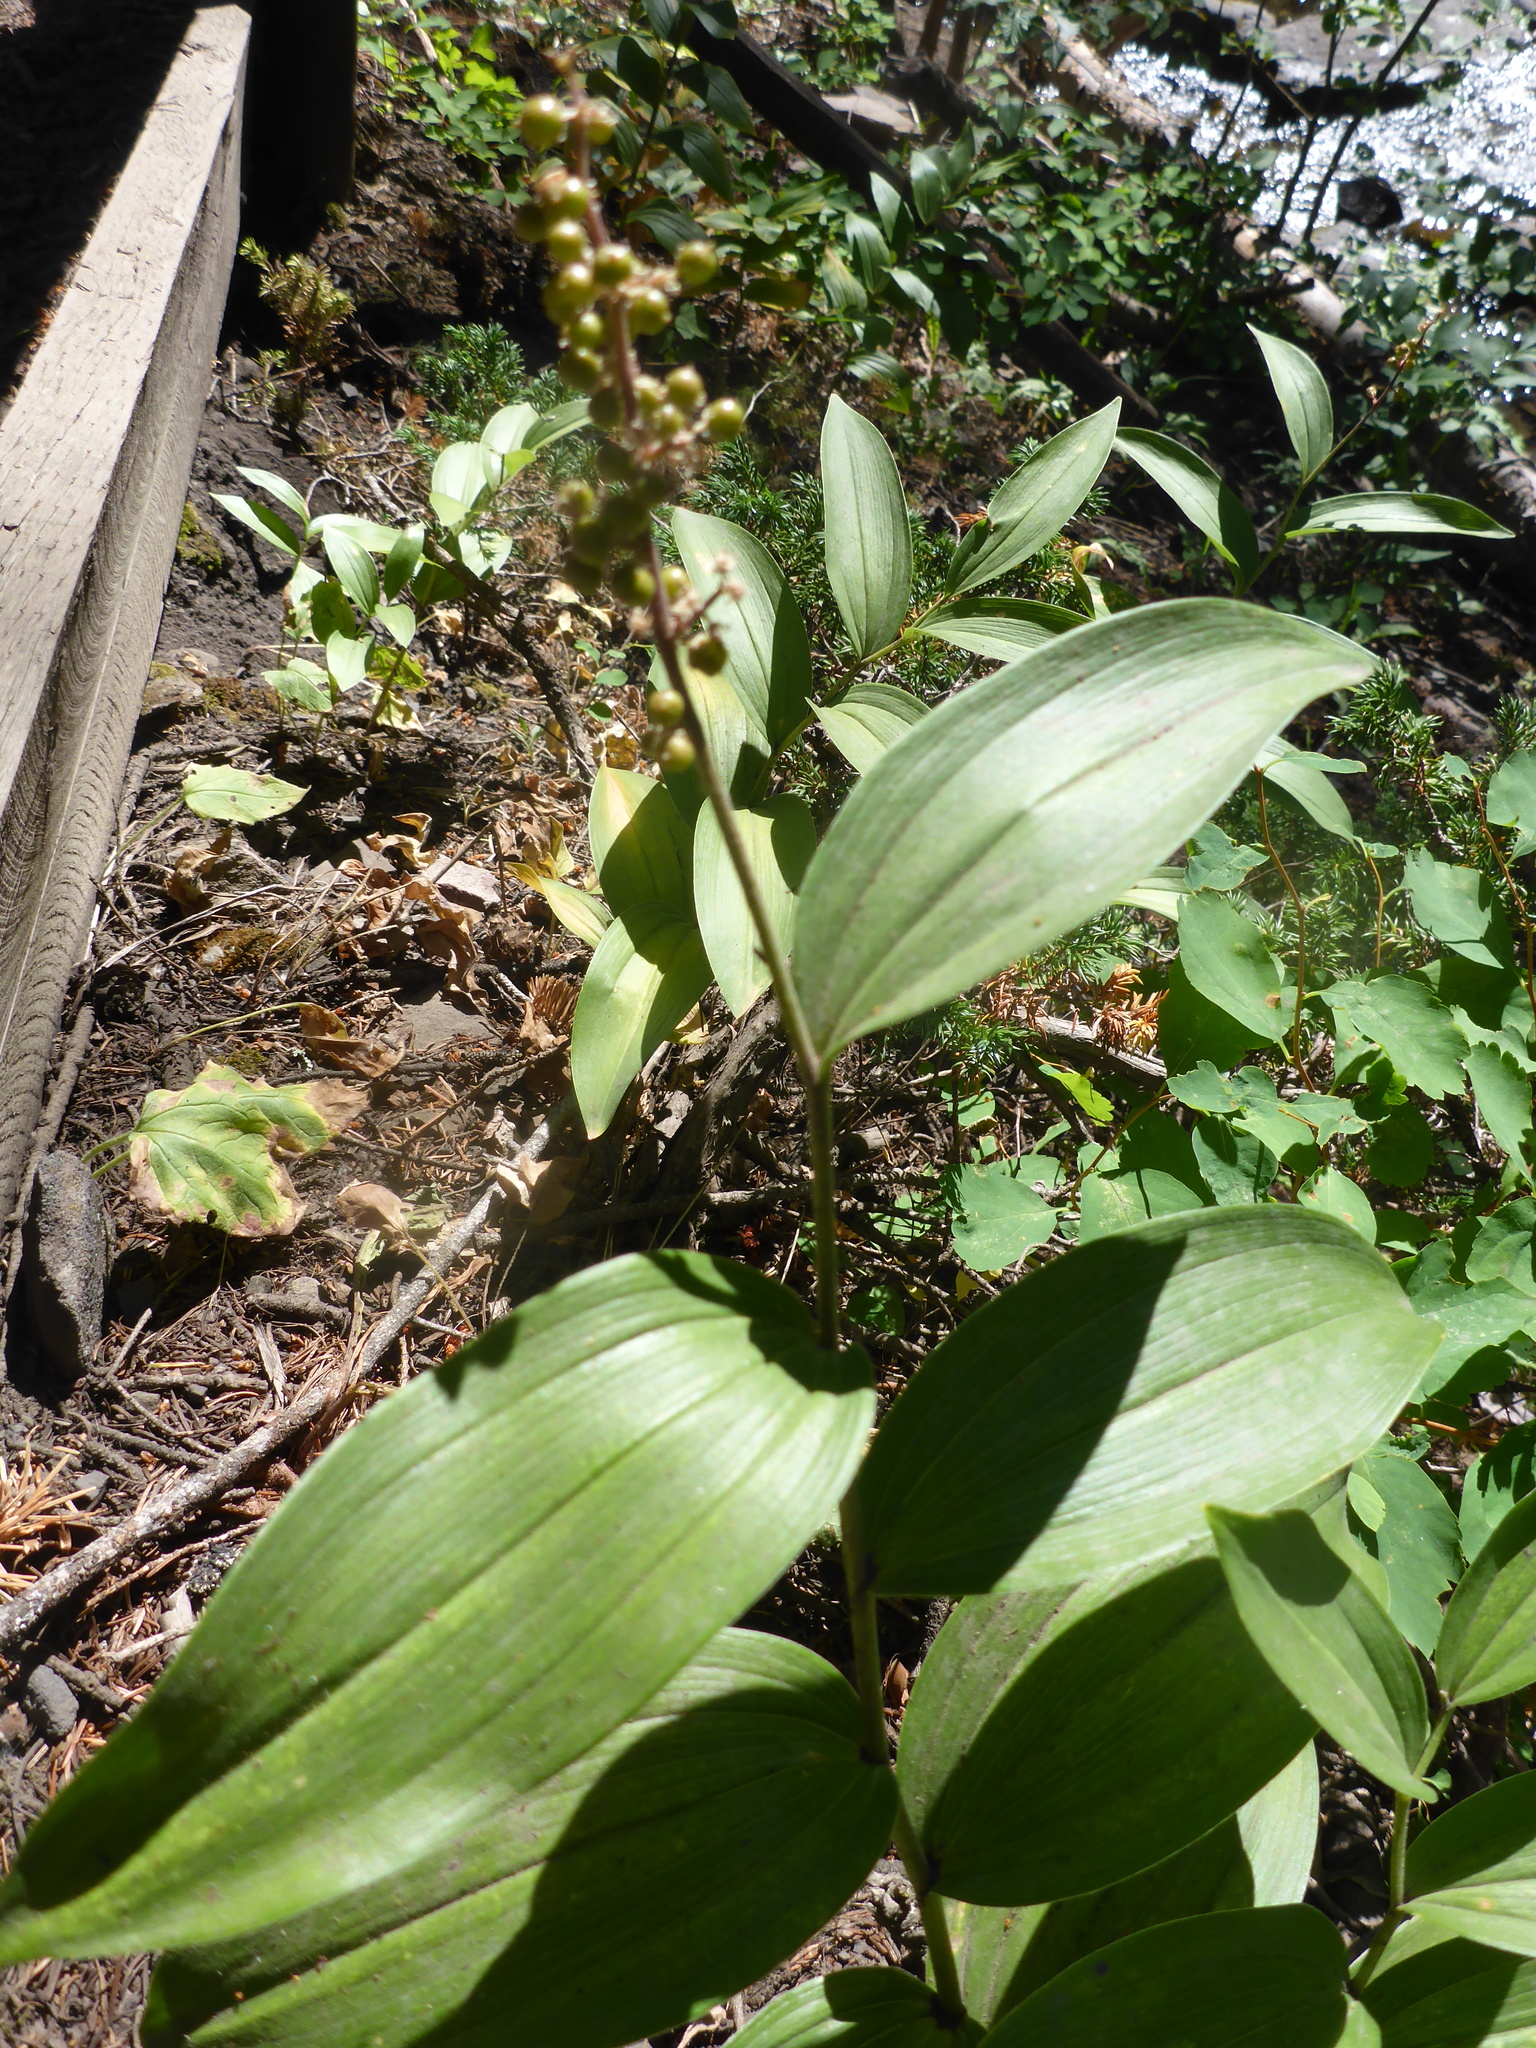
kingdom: Plantae
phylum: Tracheophyta
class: Liliopsida
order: Asparagales
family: Asparagaceae
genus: Maianthemum
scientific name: Maianthemum racemosum
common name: False spikenard
